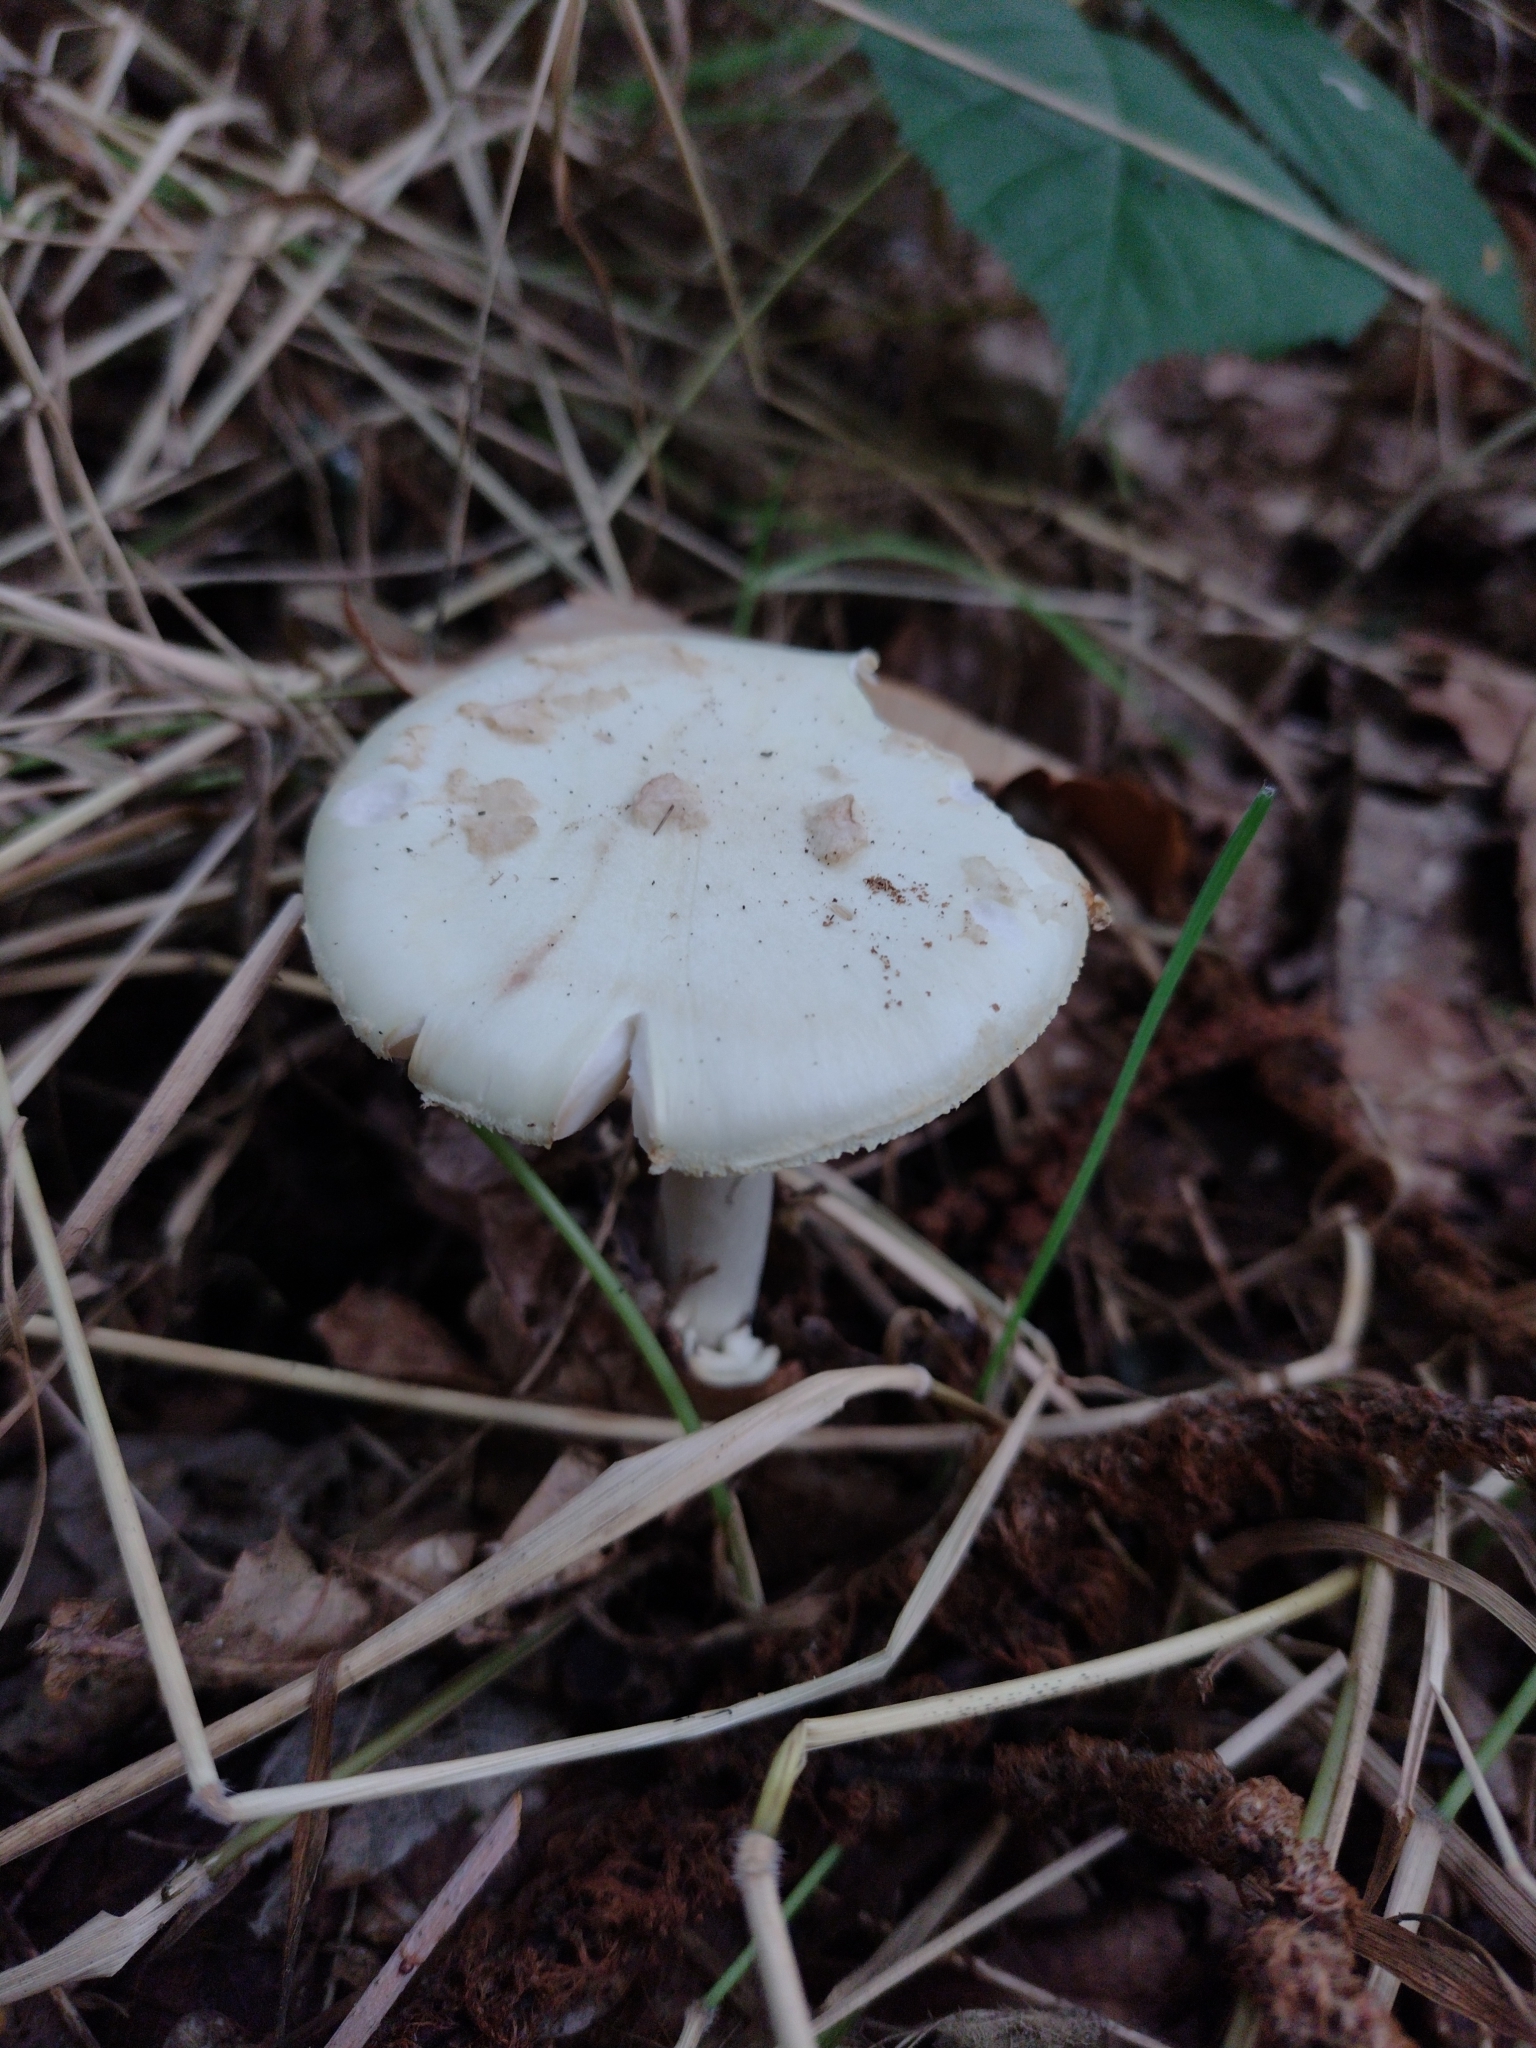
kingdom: Fungi
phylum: Basidiomycota
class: Agaricomycetes
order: Agaricales
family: Amanitaceae
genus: Amanita
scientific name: Amanita citrina
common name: False death-cap
